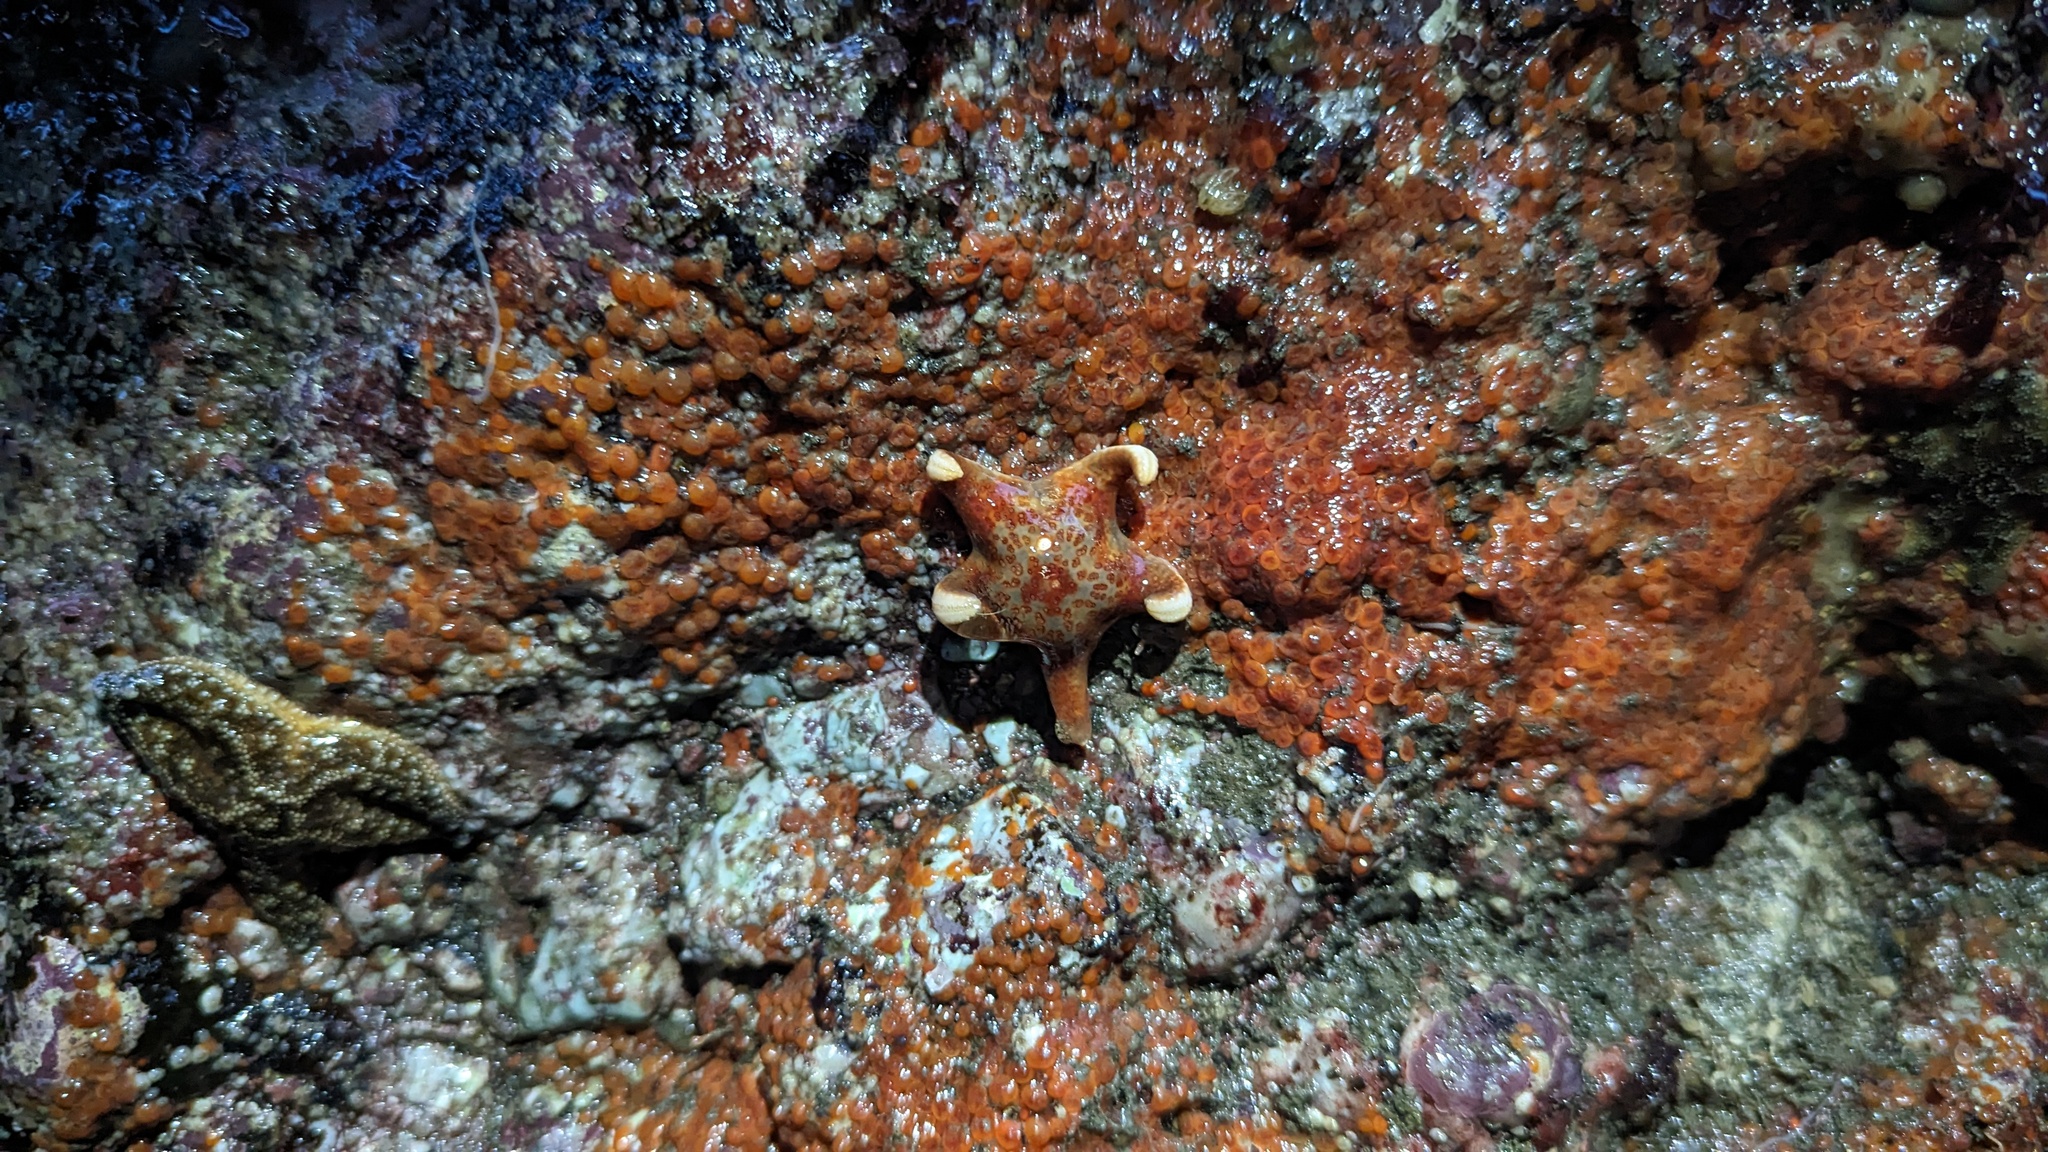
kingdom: Animalia
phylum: Echinodermata
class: Asteroidea
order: Valvatida
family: Asteropseidae
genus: Dermasterias
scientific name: Dermasterias imbricata
